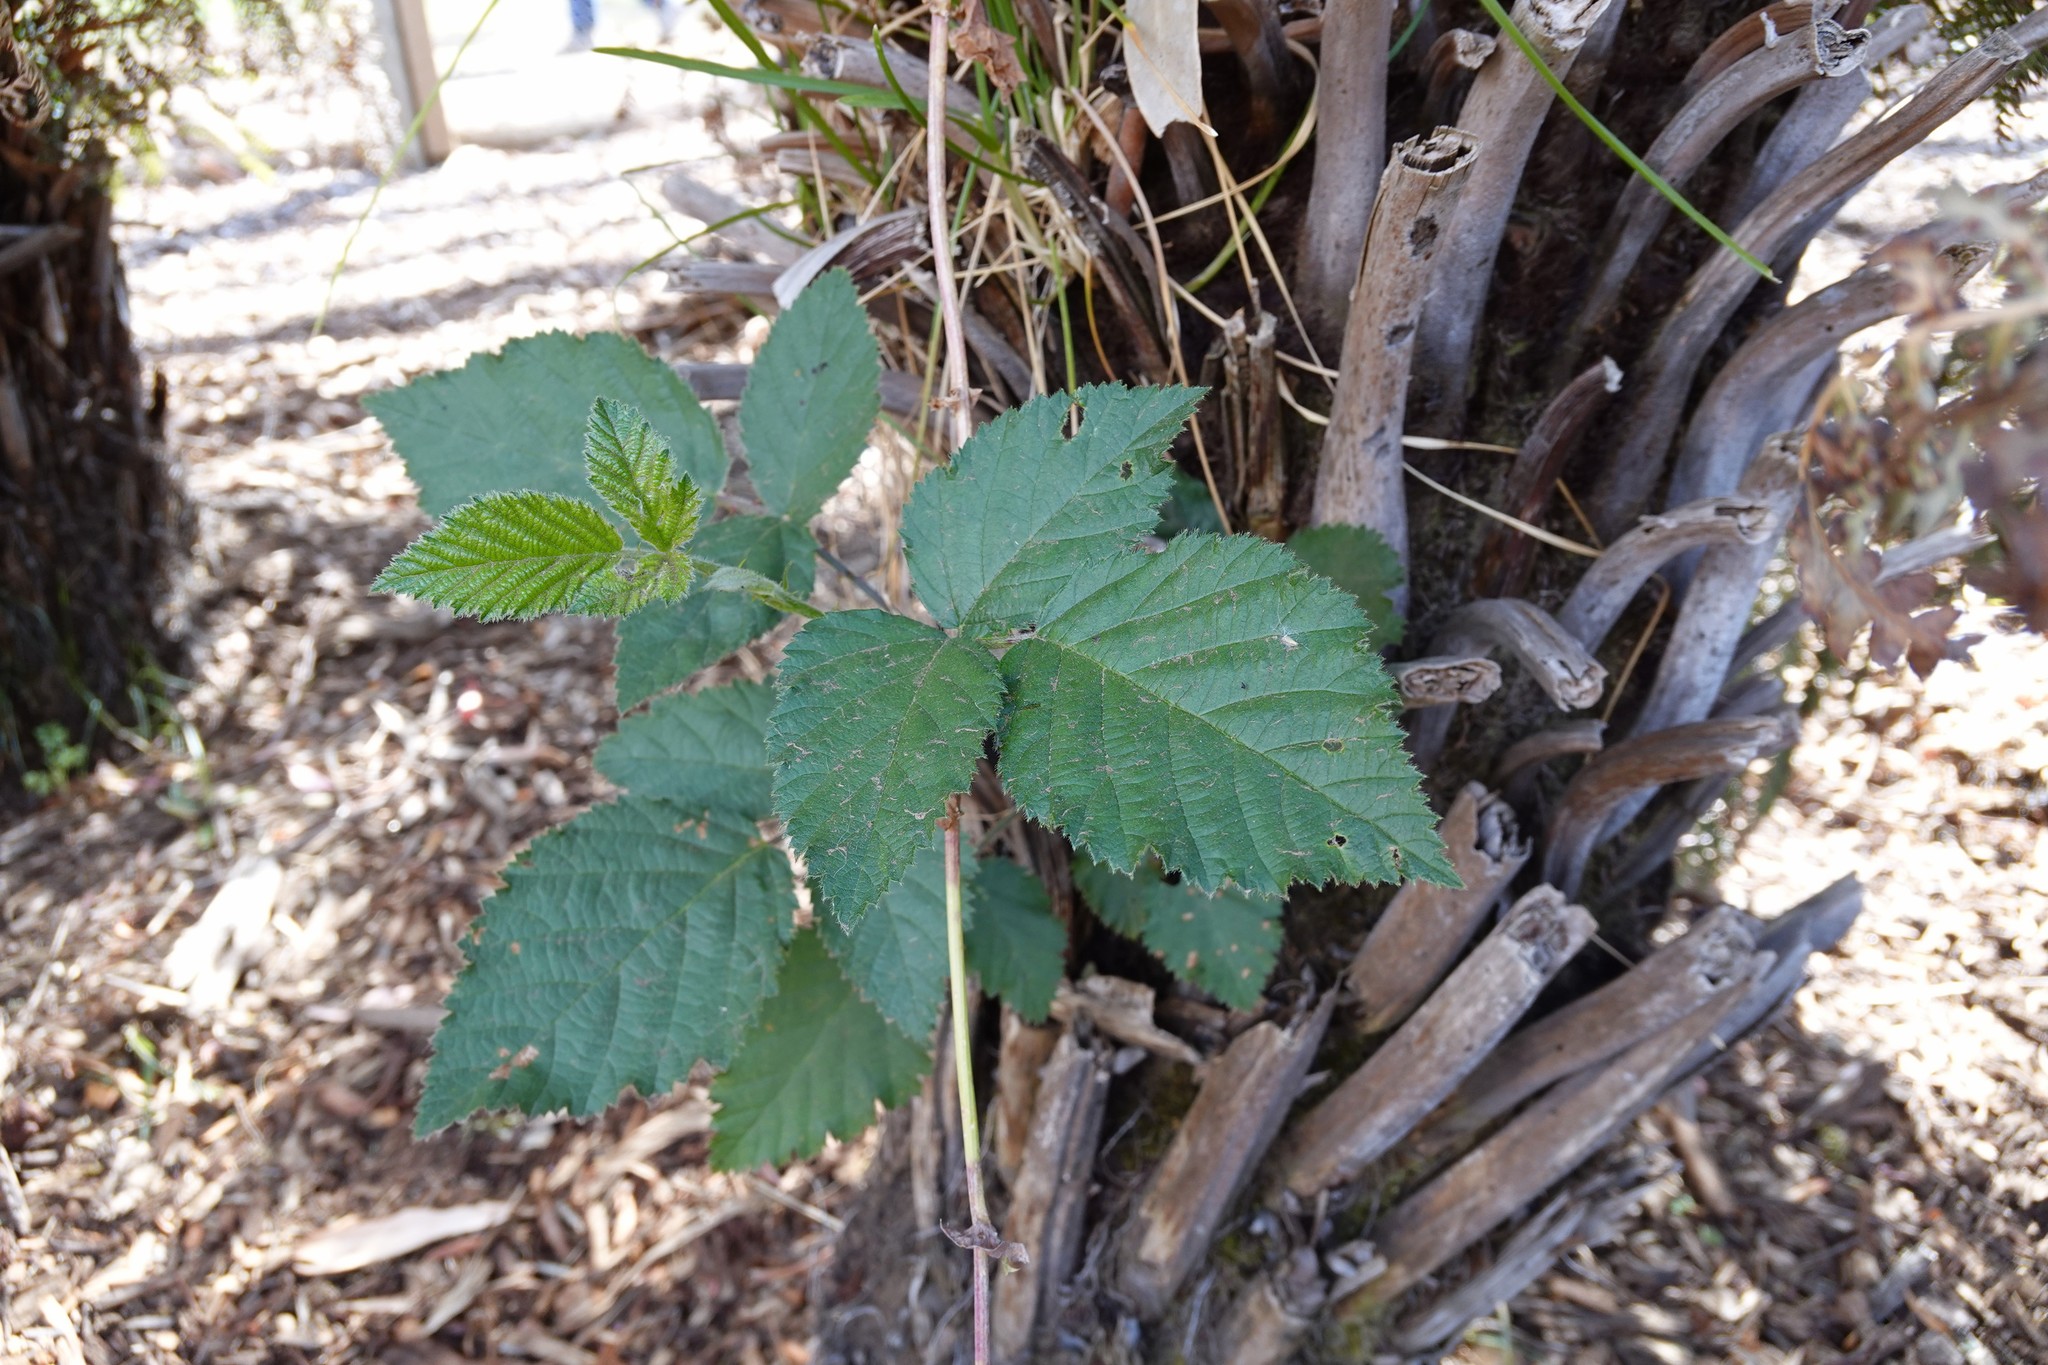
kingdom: Plantae
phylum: Tracheophyta
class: Magnoliopsida
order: Rosales
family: Rosaceae
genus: Rubus
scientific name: Rubus
